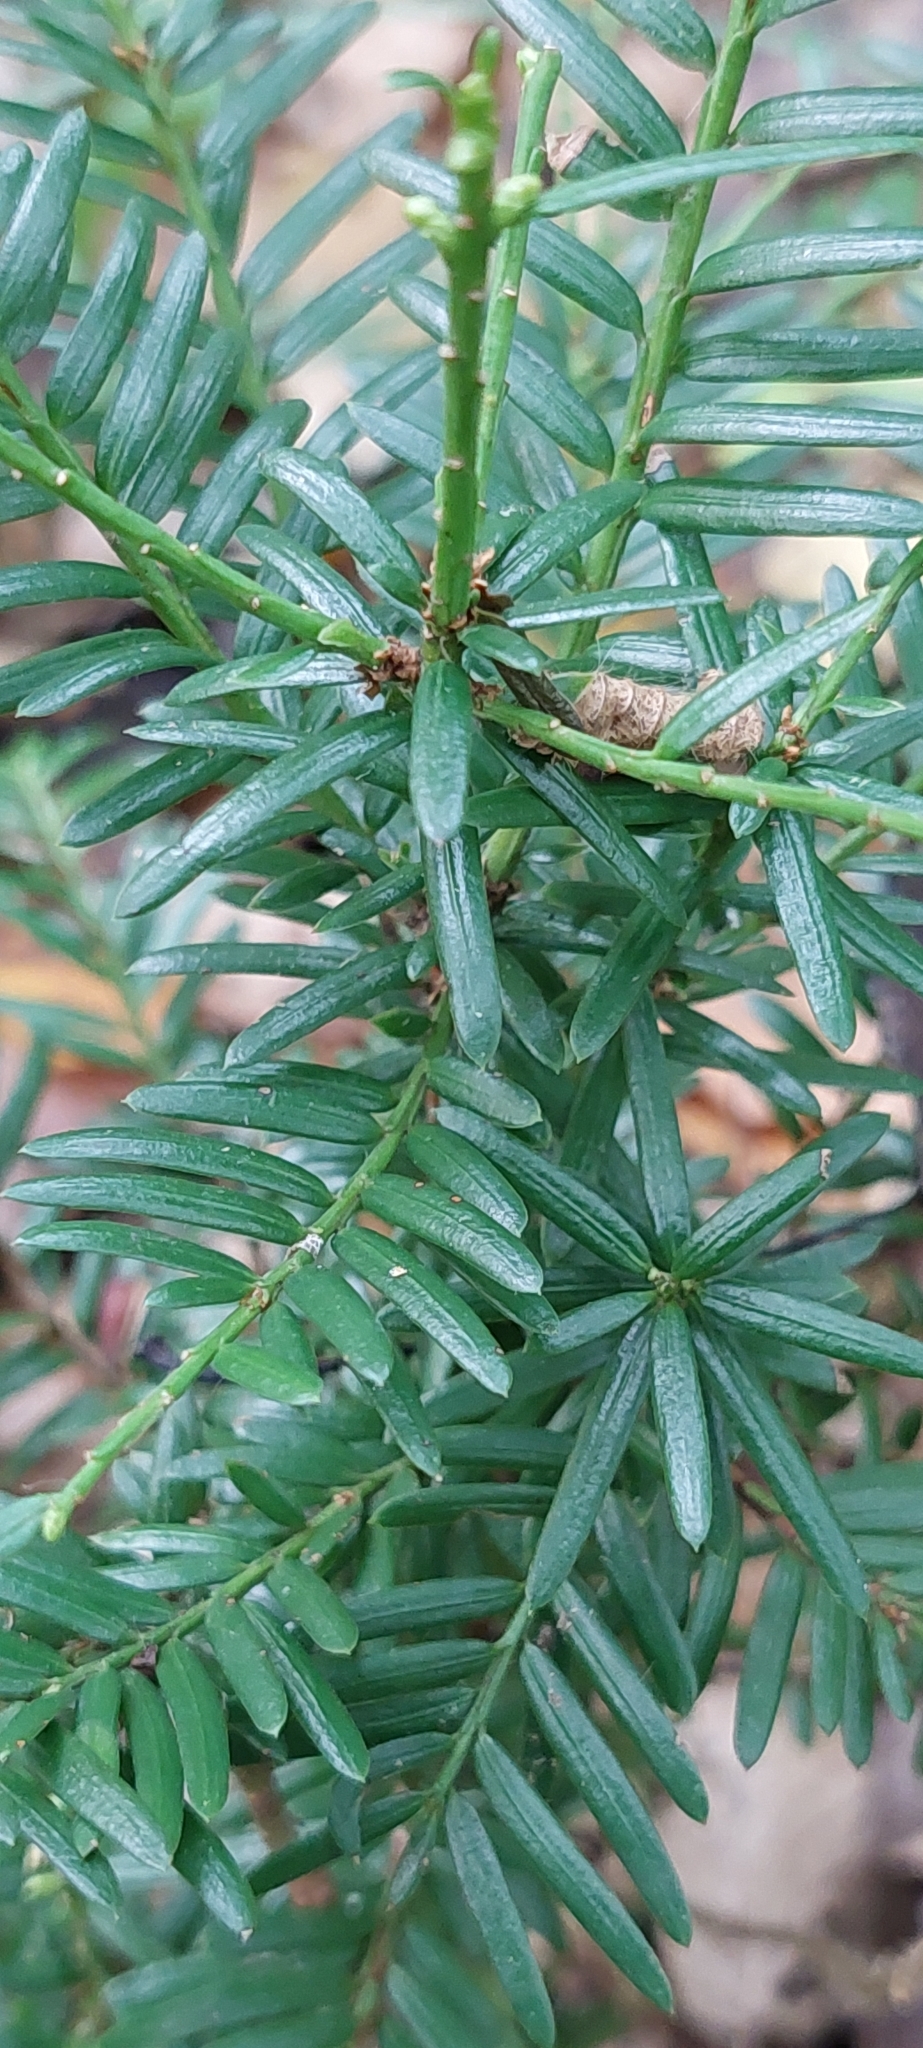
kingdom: Plantae
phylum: Tracheophyta
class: Pinopsida
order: Pinales
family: Taxaceae
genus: Taxus
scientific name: Taxus baccata
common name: Yew
